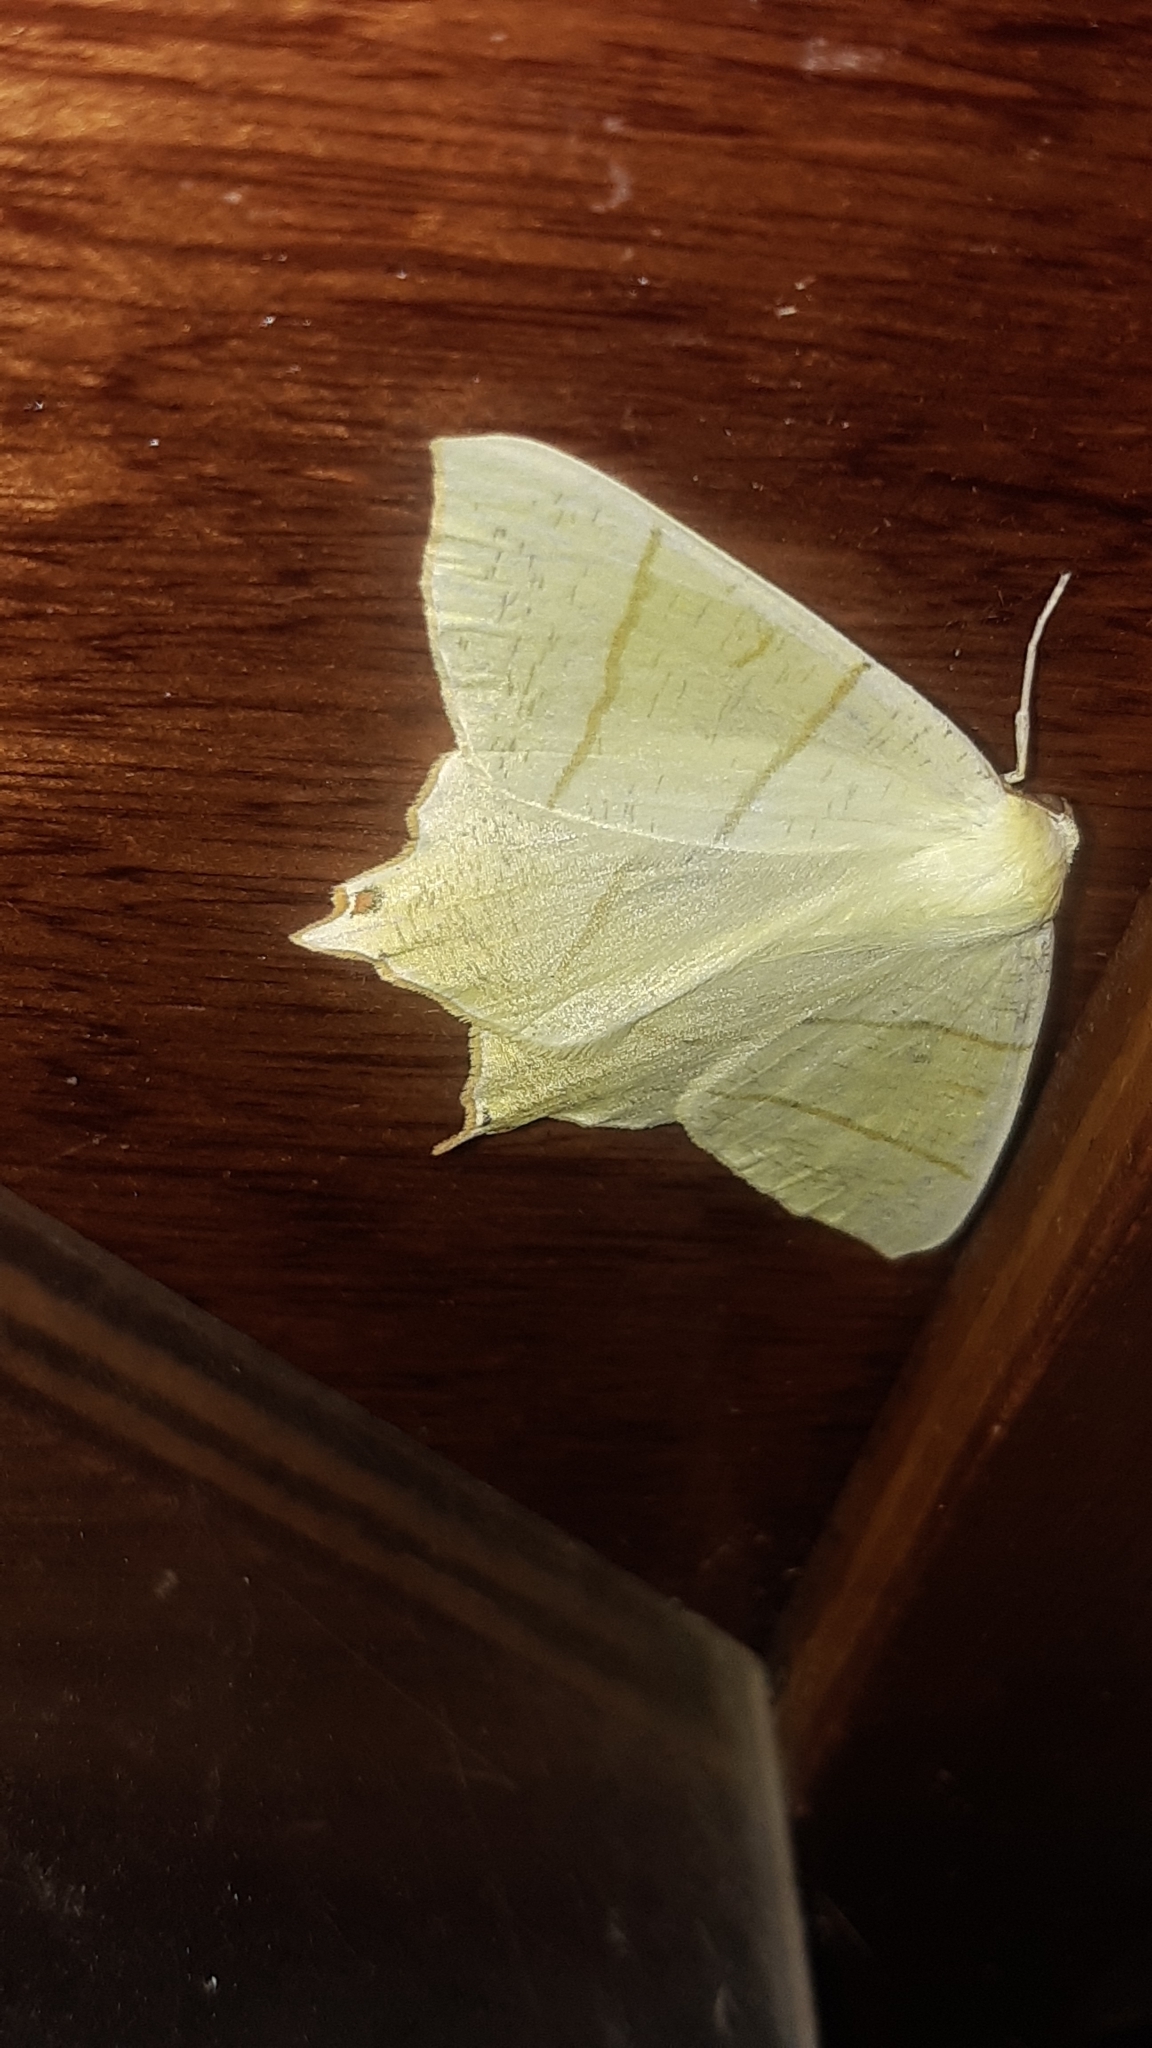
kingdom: Animalia
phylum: Arthropoda
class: Insecta
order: Lepidoptera
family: Geometridae
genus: Ourapteryx
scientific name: Ourapteryx sambucaria
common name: Swallow-tailed moth
